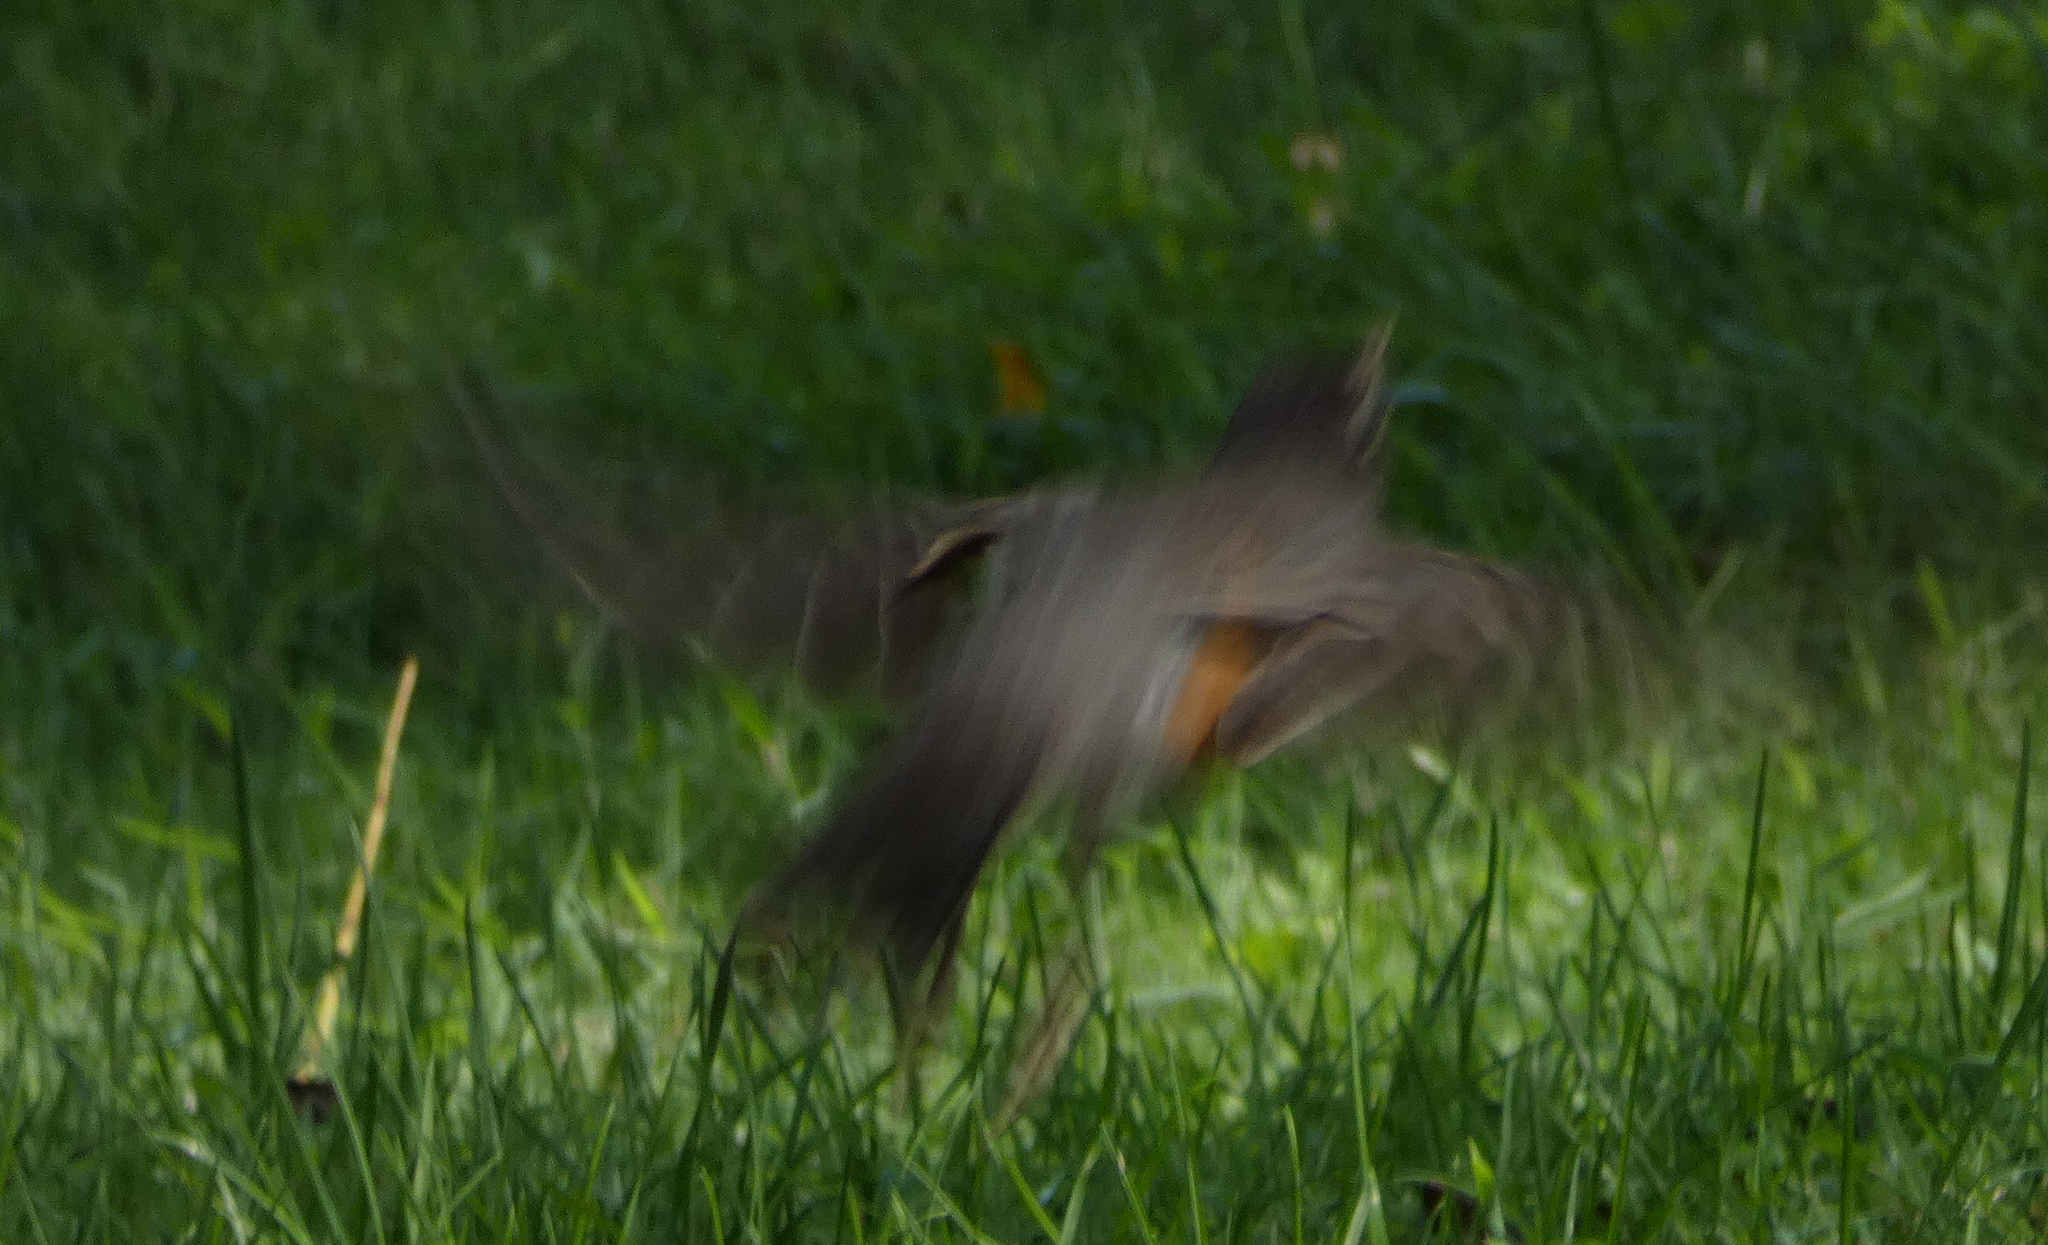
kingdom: Animalia
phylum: Chordata
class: Aves
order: Passeriformes
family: Turdidae
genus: Turdus
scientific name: Turdus migratorius
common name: American robin
